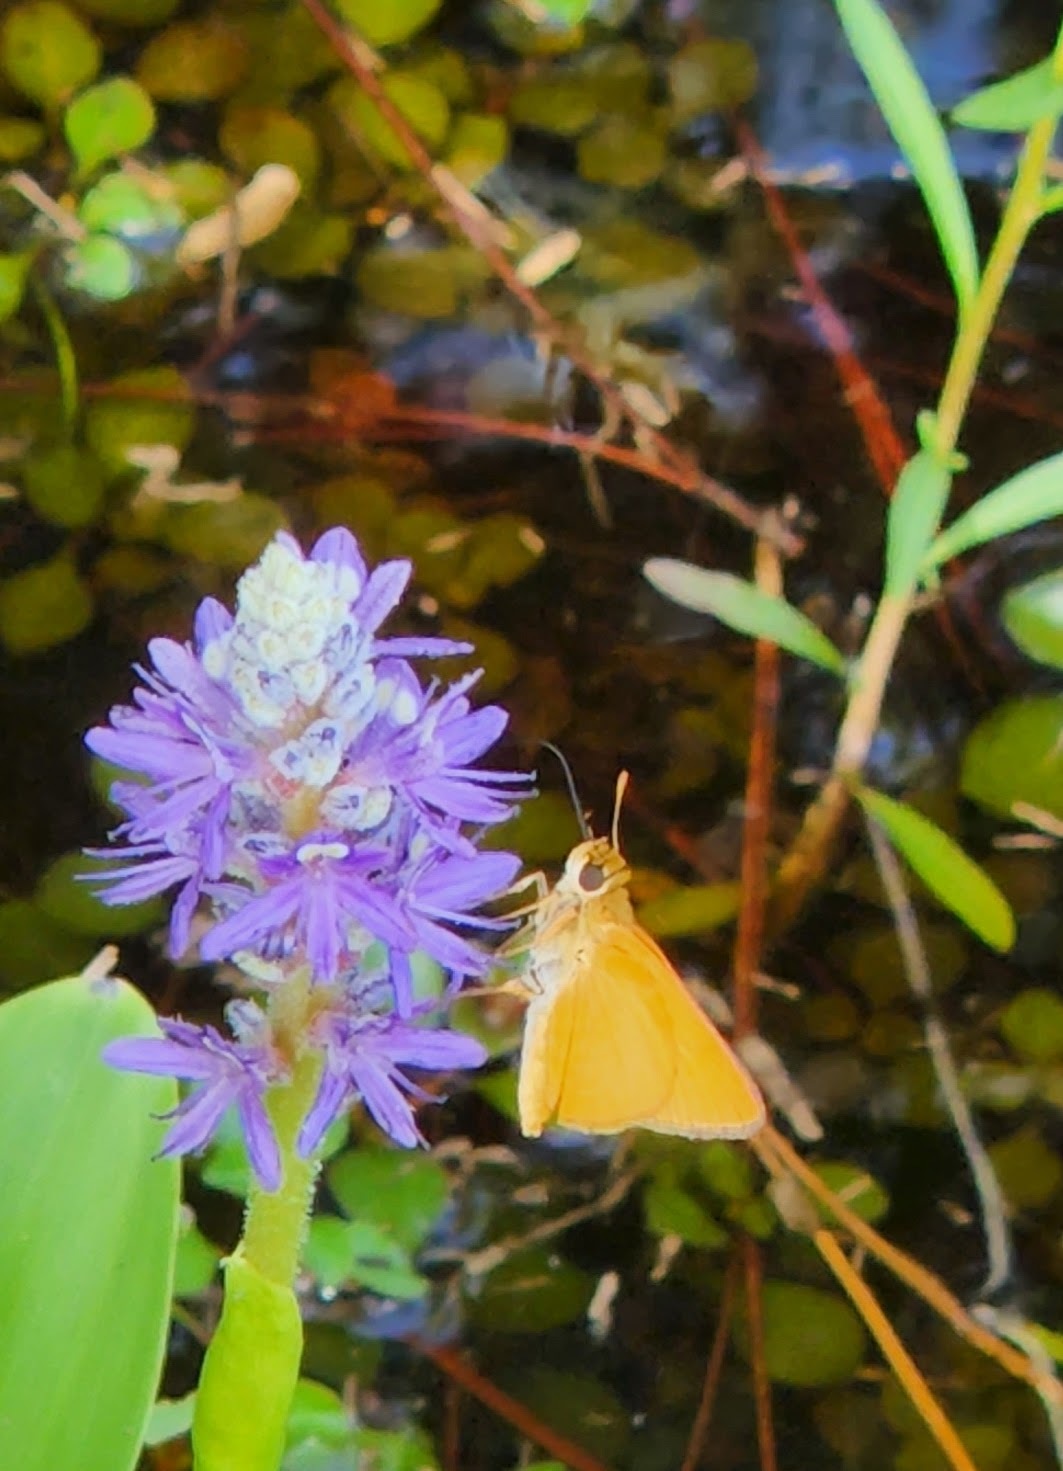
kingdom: Animalia
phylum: Arthropoda
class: Insecta
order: Lepidoptera
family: Hesperiidae
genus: Atrytone
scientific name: Atrytone delaware
